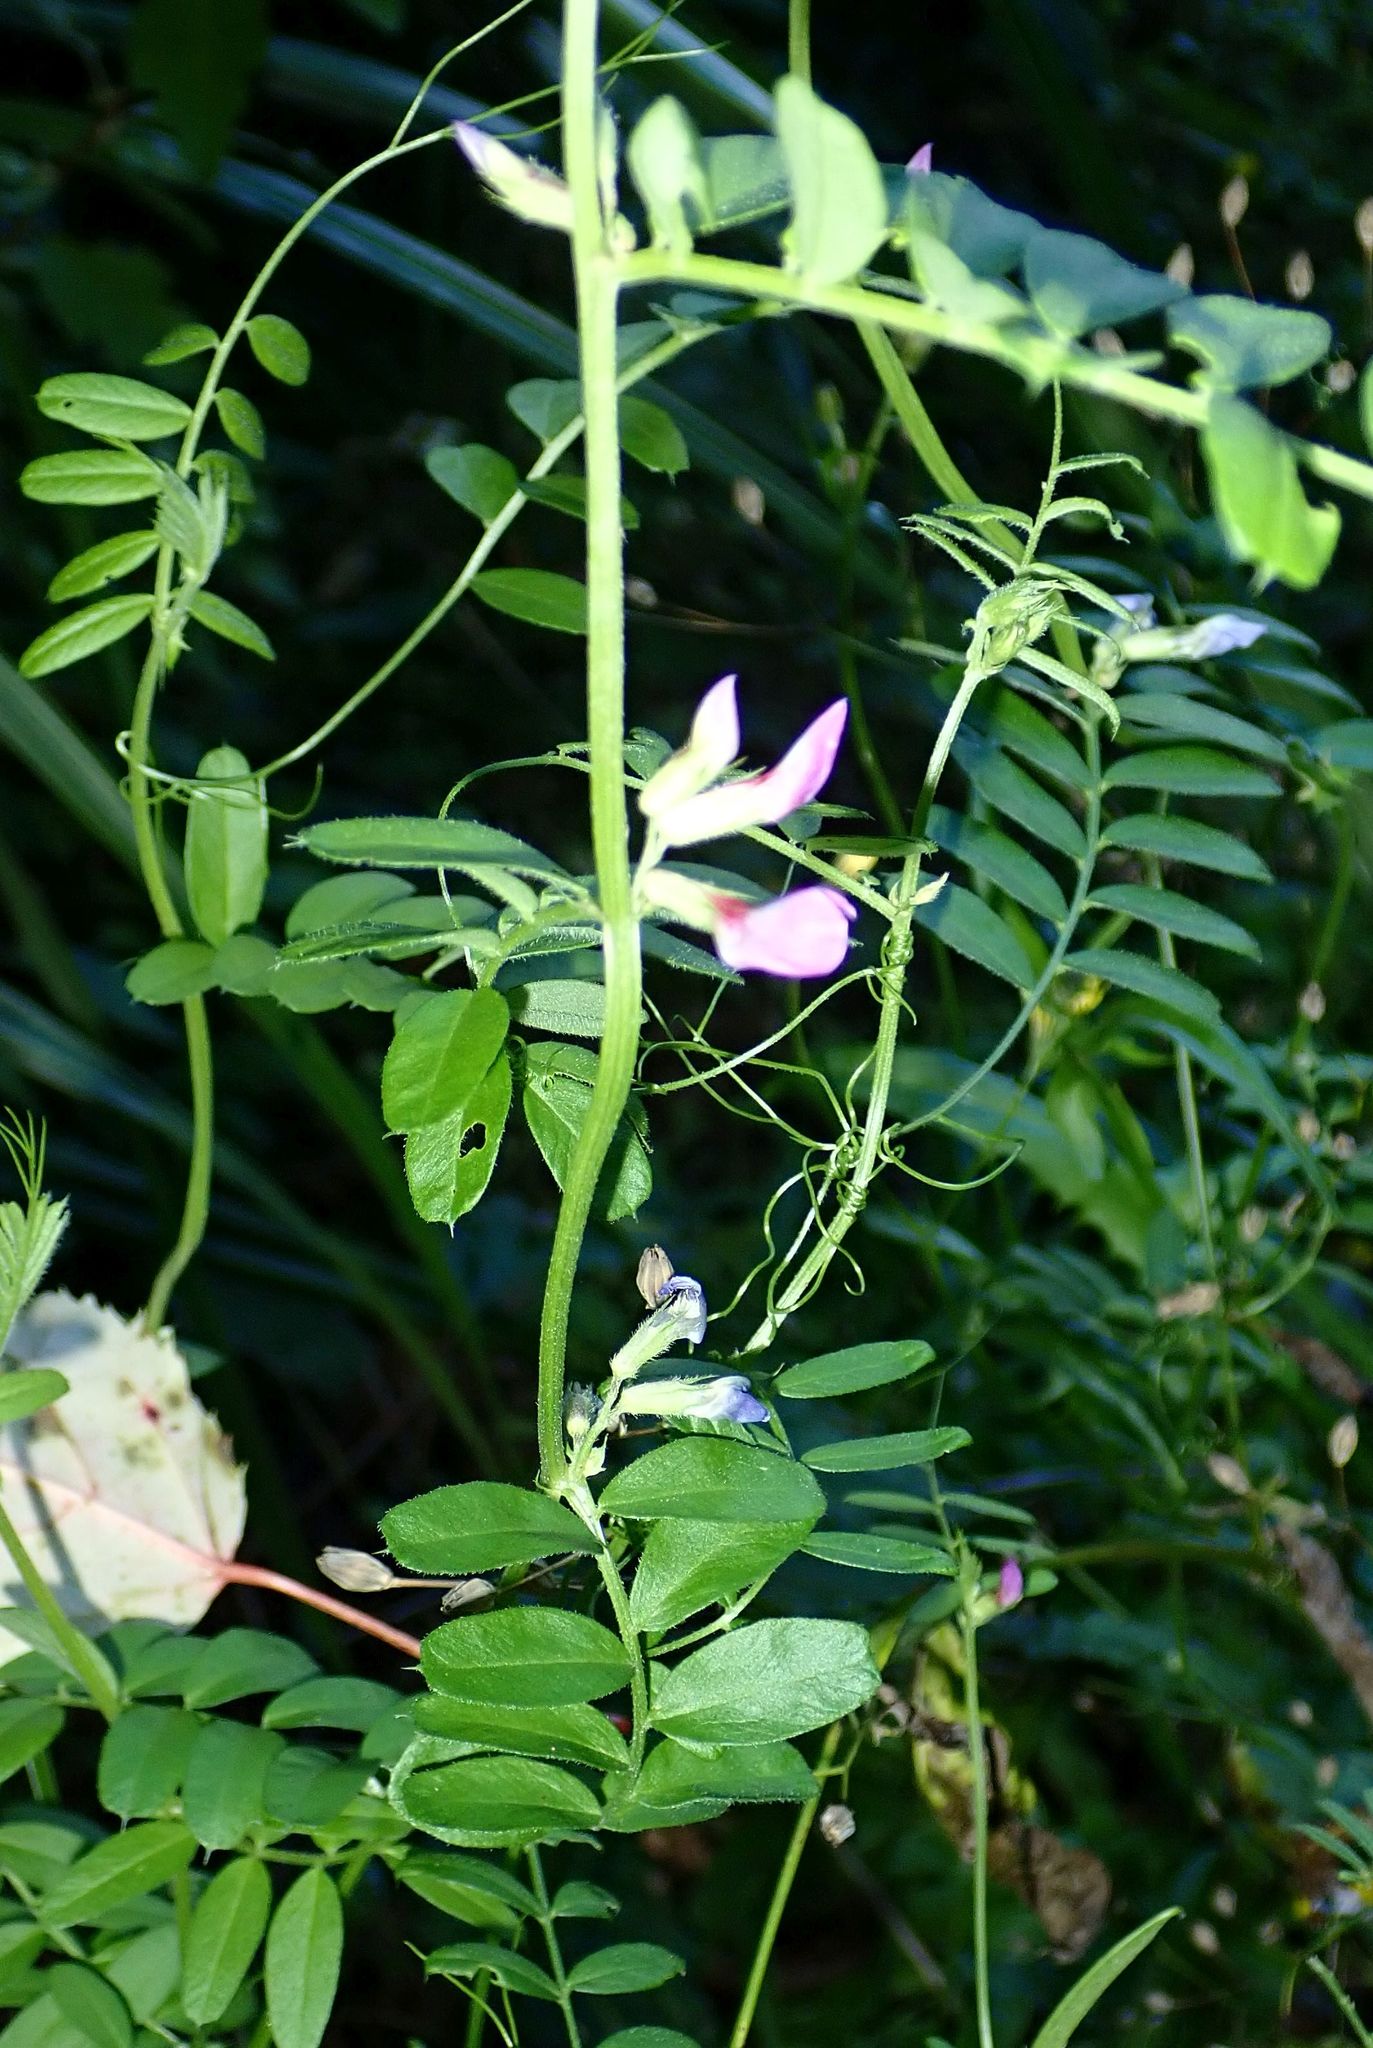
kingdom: Plantae
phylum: Tracheophyta
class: Magnoliopsida
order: Fabales
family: Fabaceae
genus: Vicia
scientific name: Vicia sativa
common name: Garden vetch
